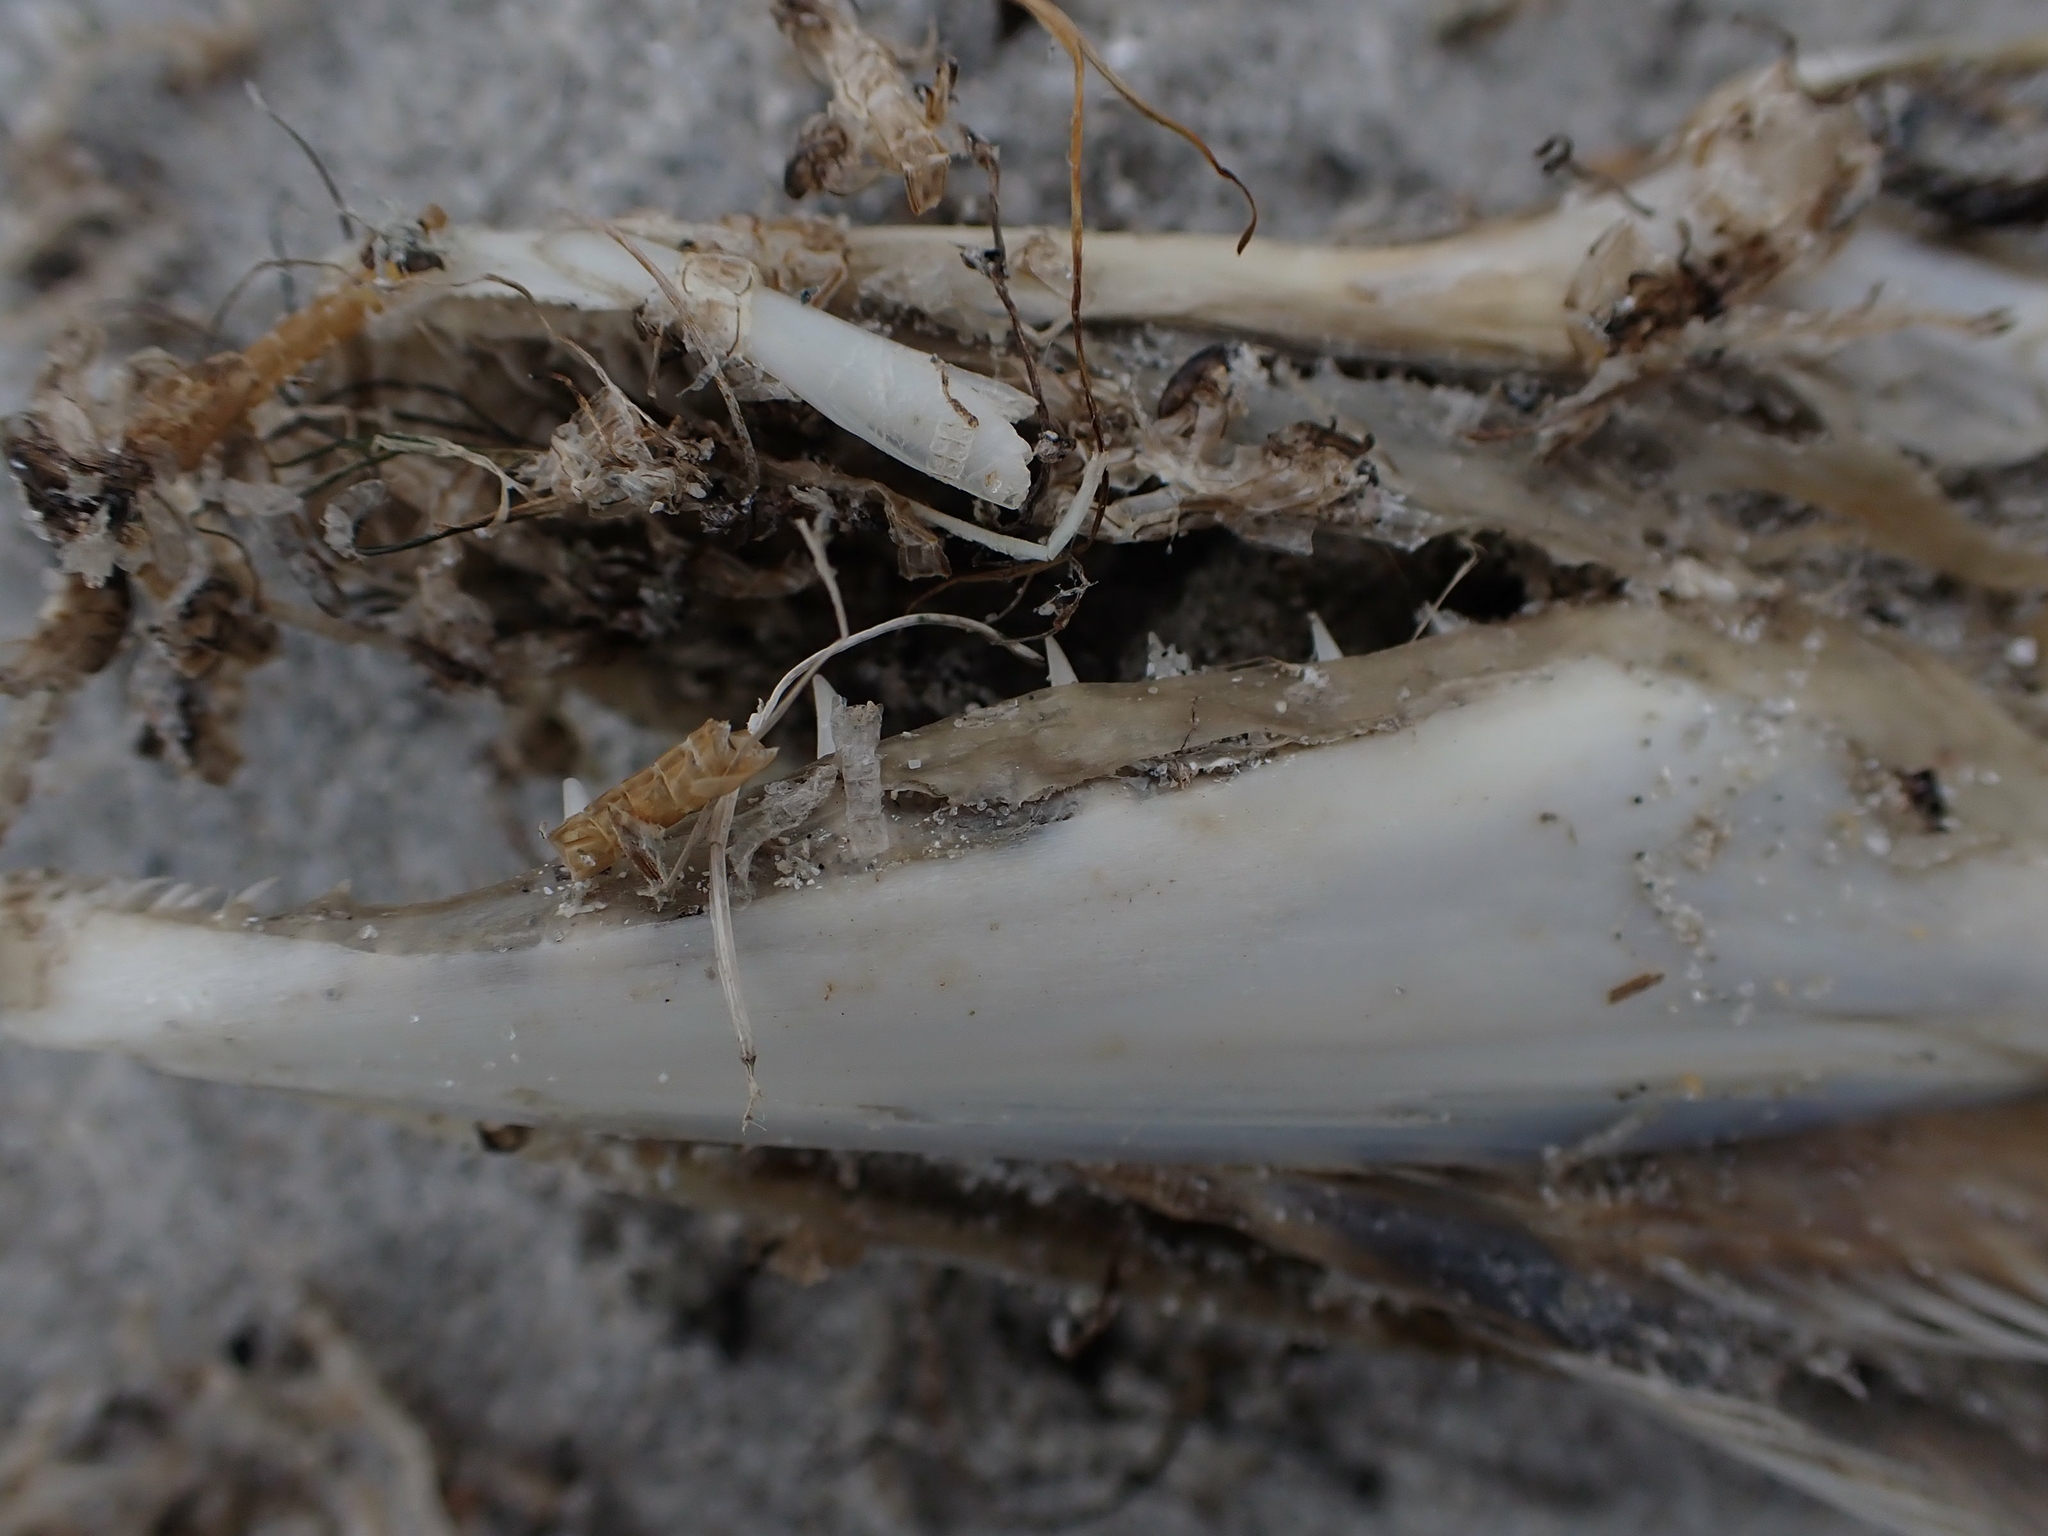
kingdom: Animalia
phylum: Chordata
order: Esociformes
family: Esocidae
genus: Esox
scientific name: Esox lucius
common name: Northern pike
